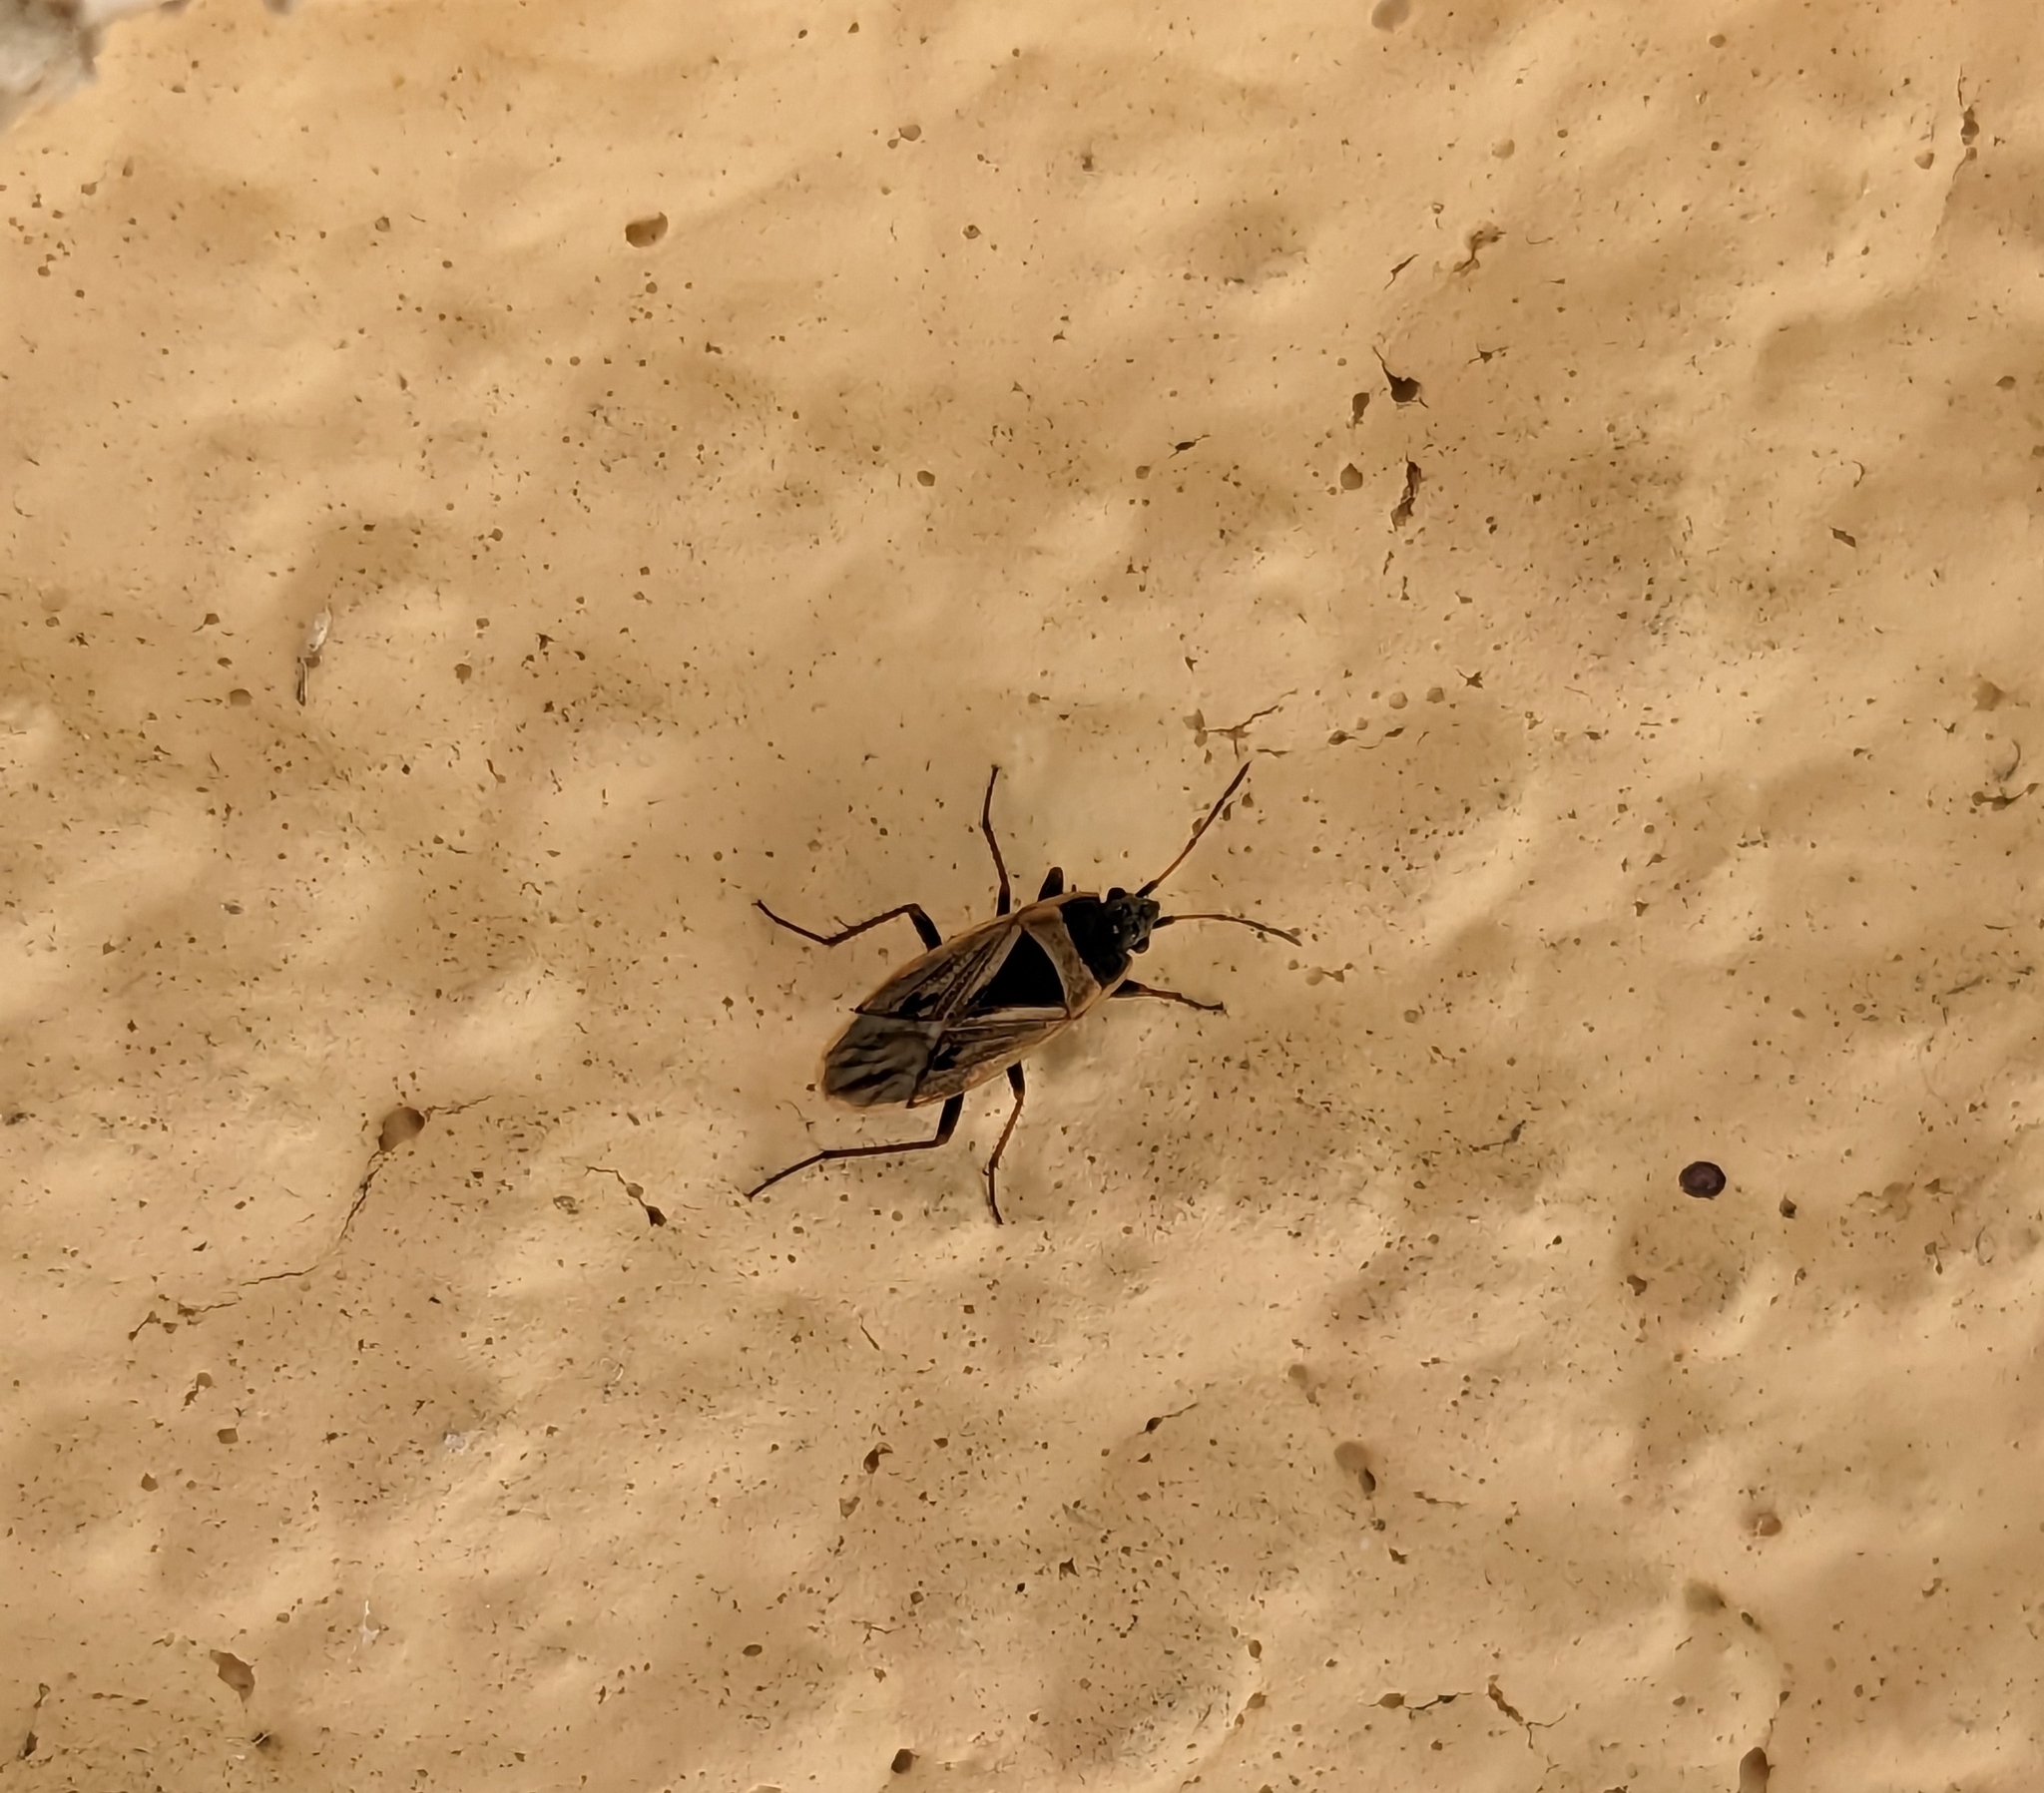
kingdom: Animalia
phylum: Arthropoda
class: Insecta
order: Hemiptera
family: Rhyparochromidae
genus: Xanthochilus
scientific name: Xanthochilus quadratus
